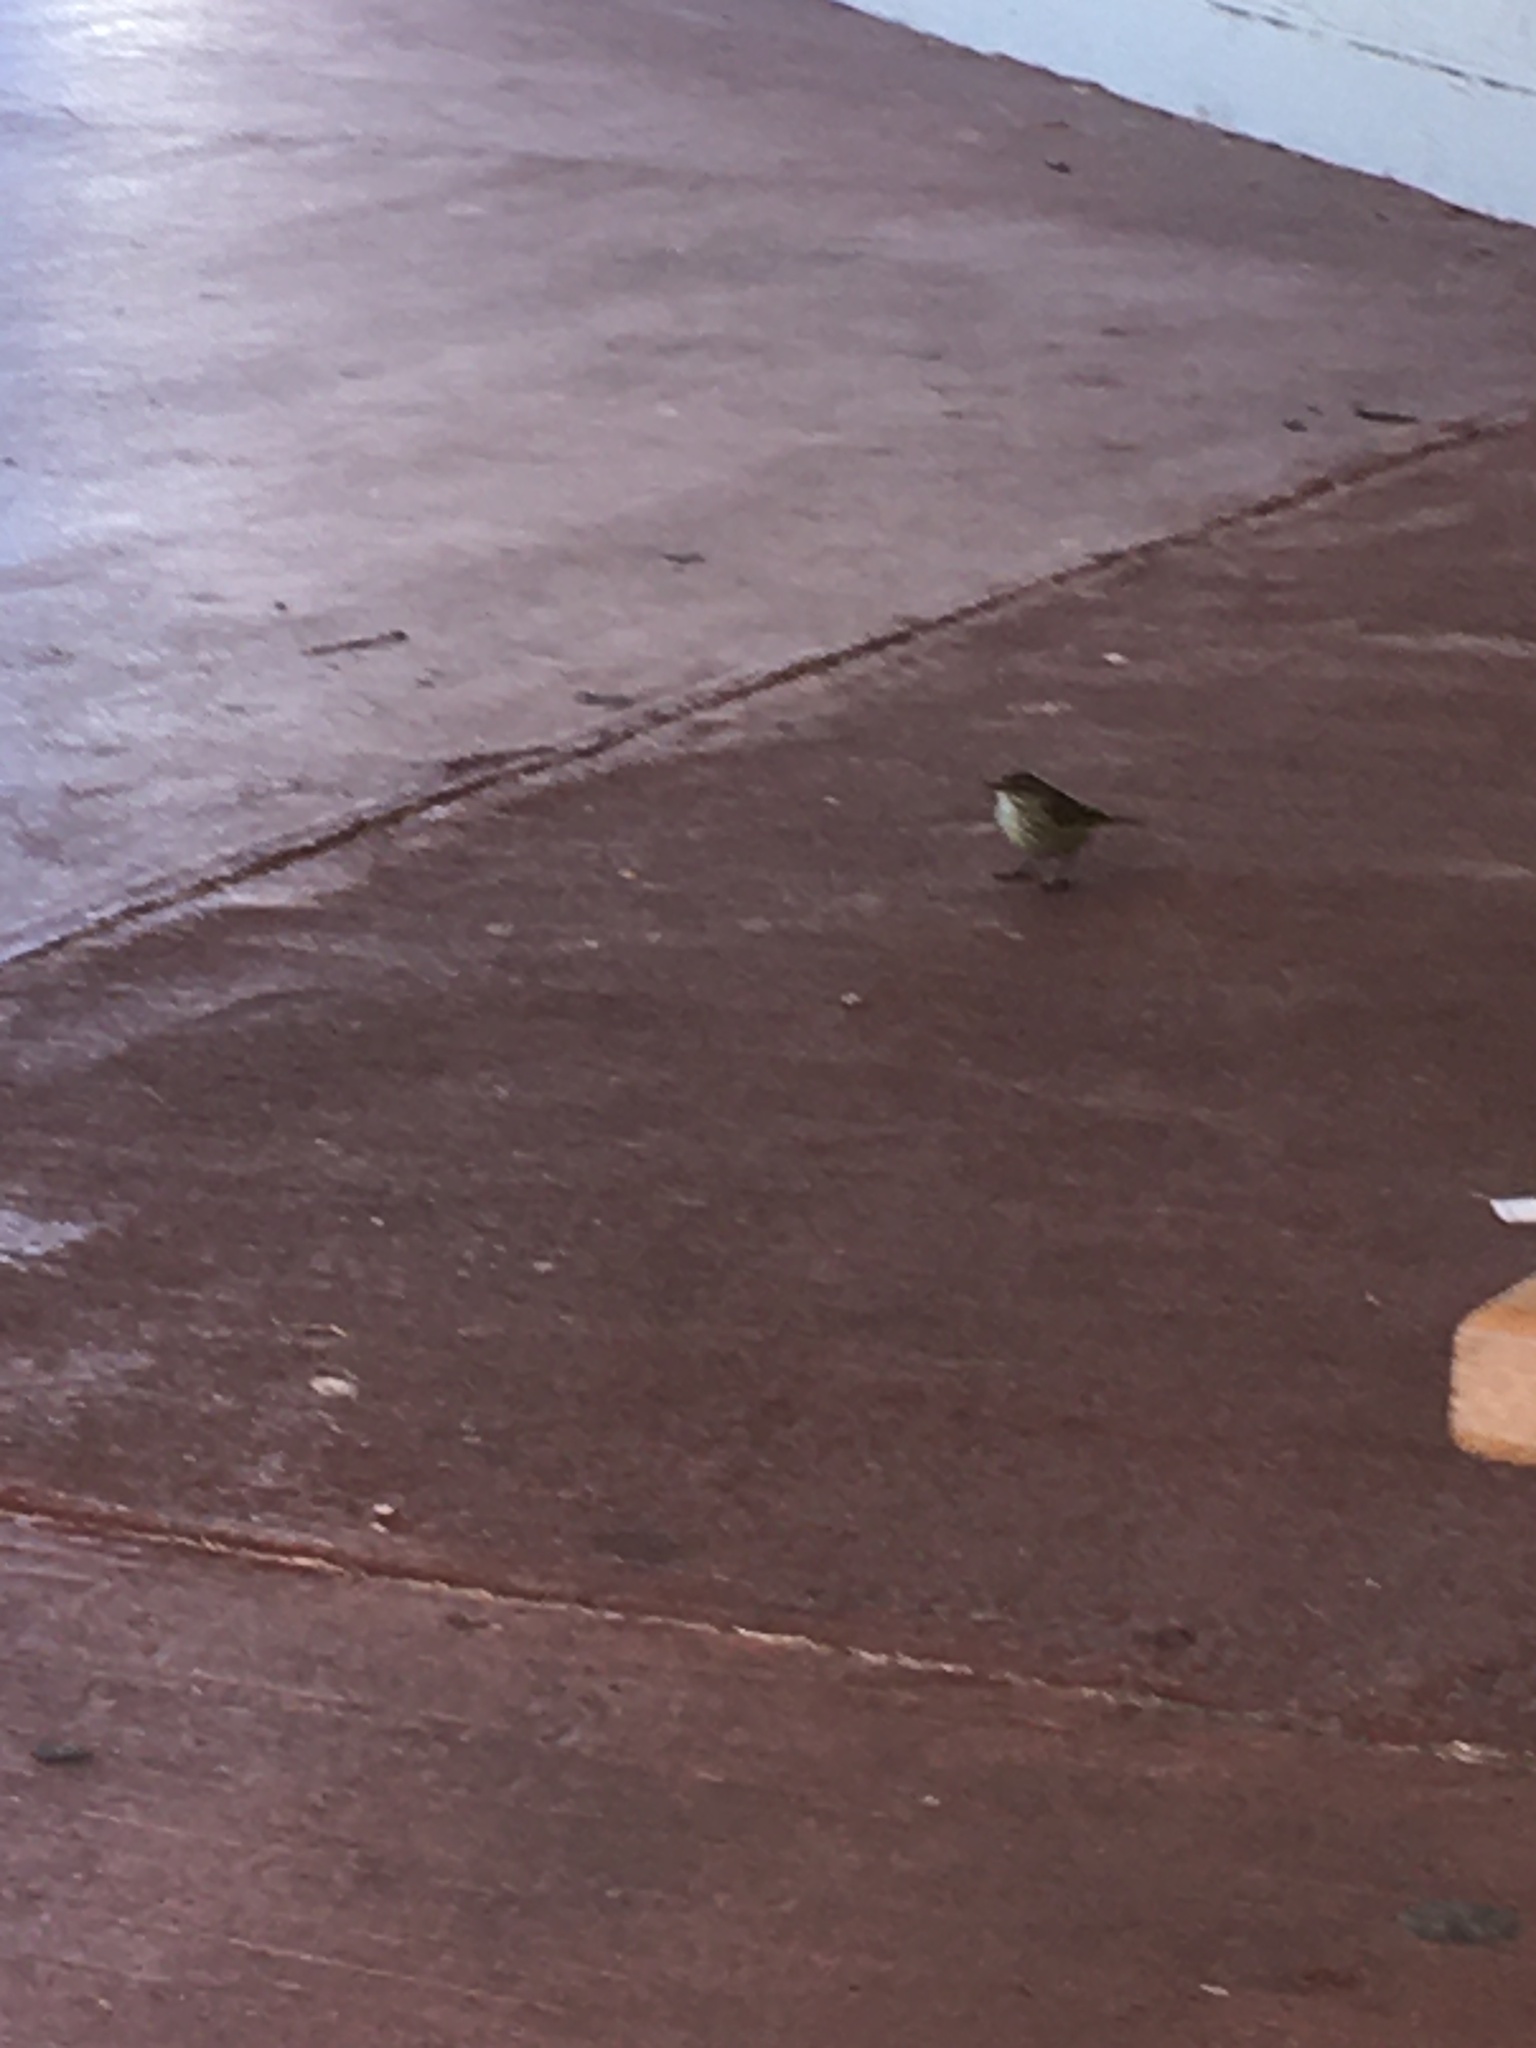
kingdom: Animalia
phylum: Chordata
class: Aves
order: Passeriformes
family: Parulidae
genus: Setophaga
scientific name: Setophaga palmarum
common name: Palm warbler
